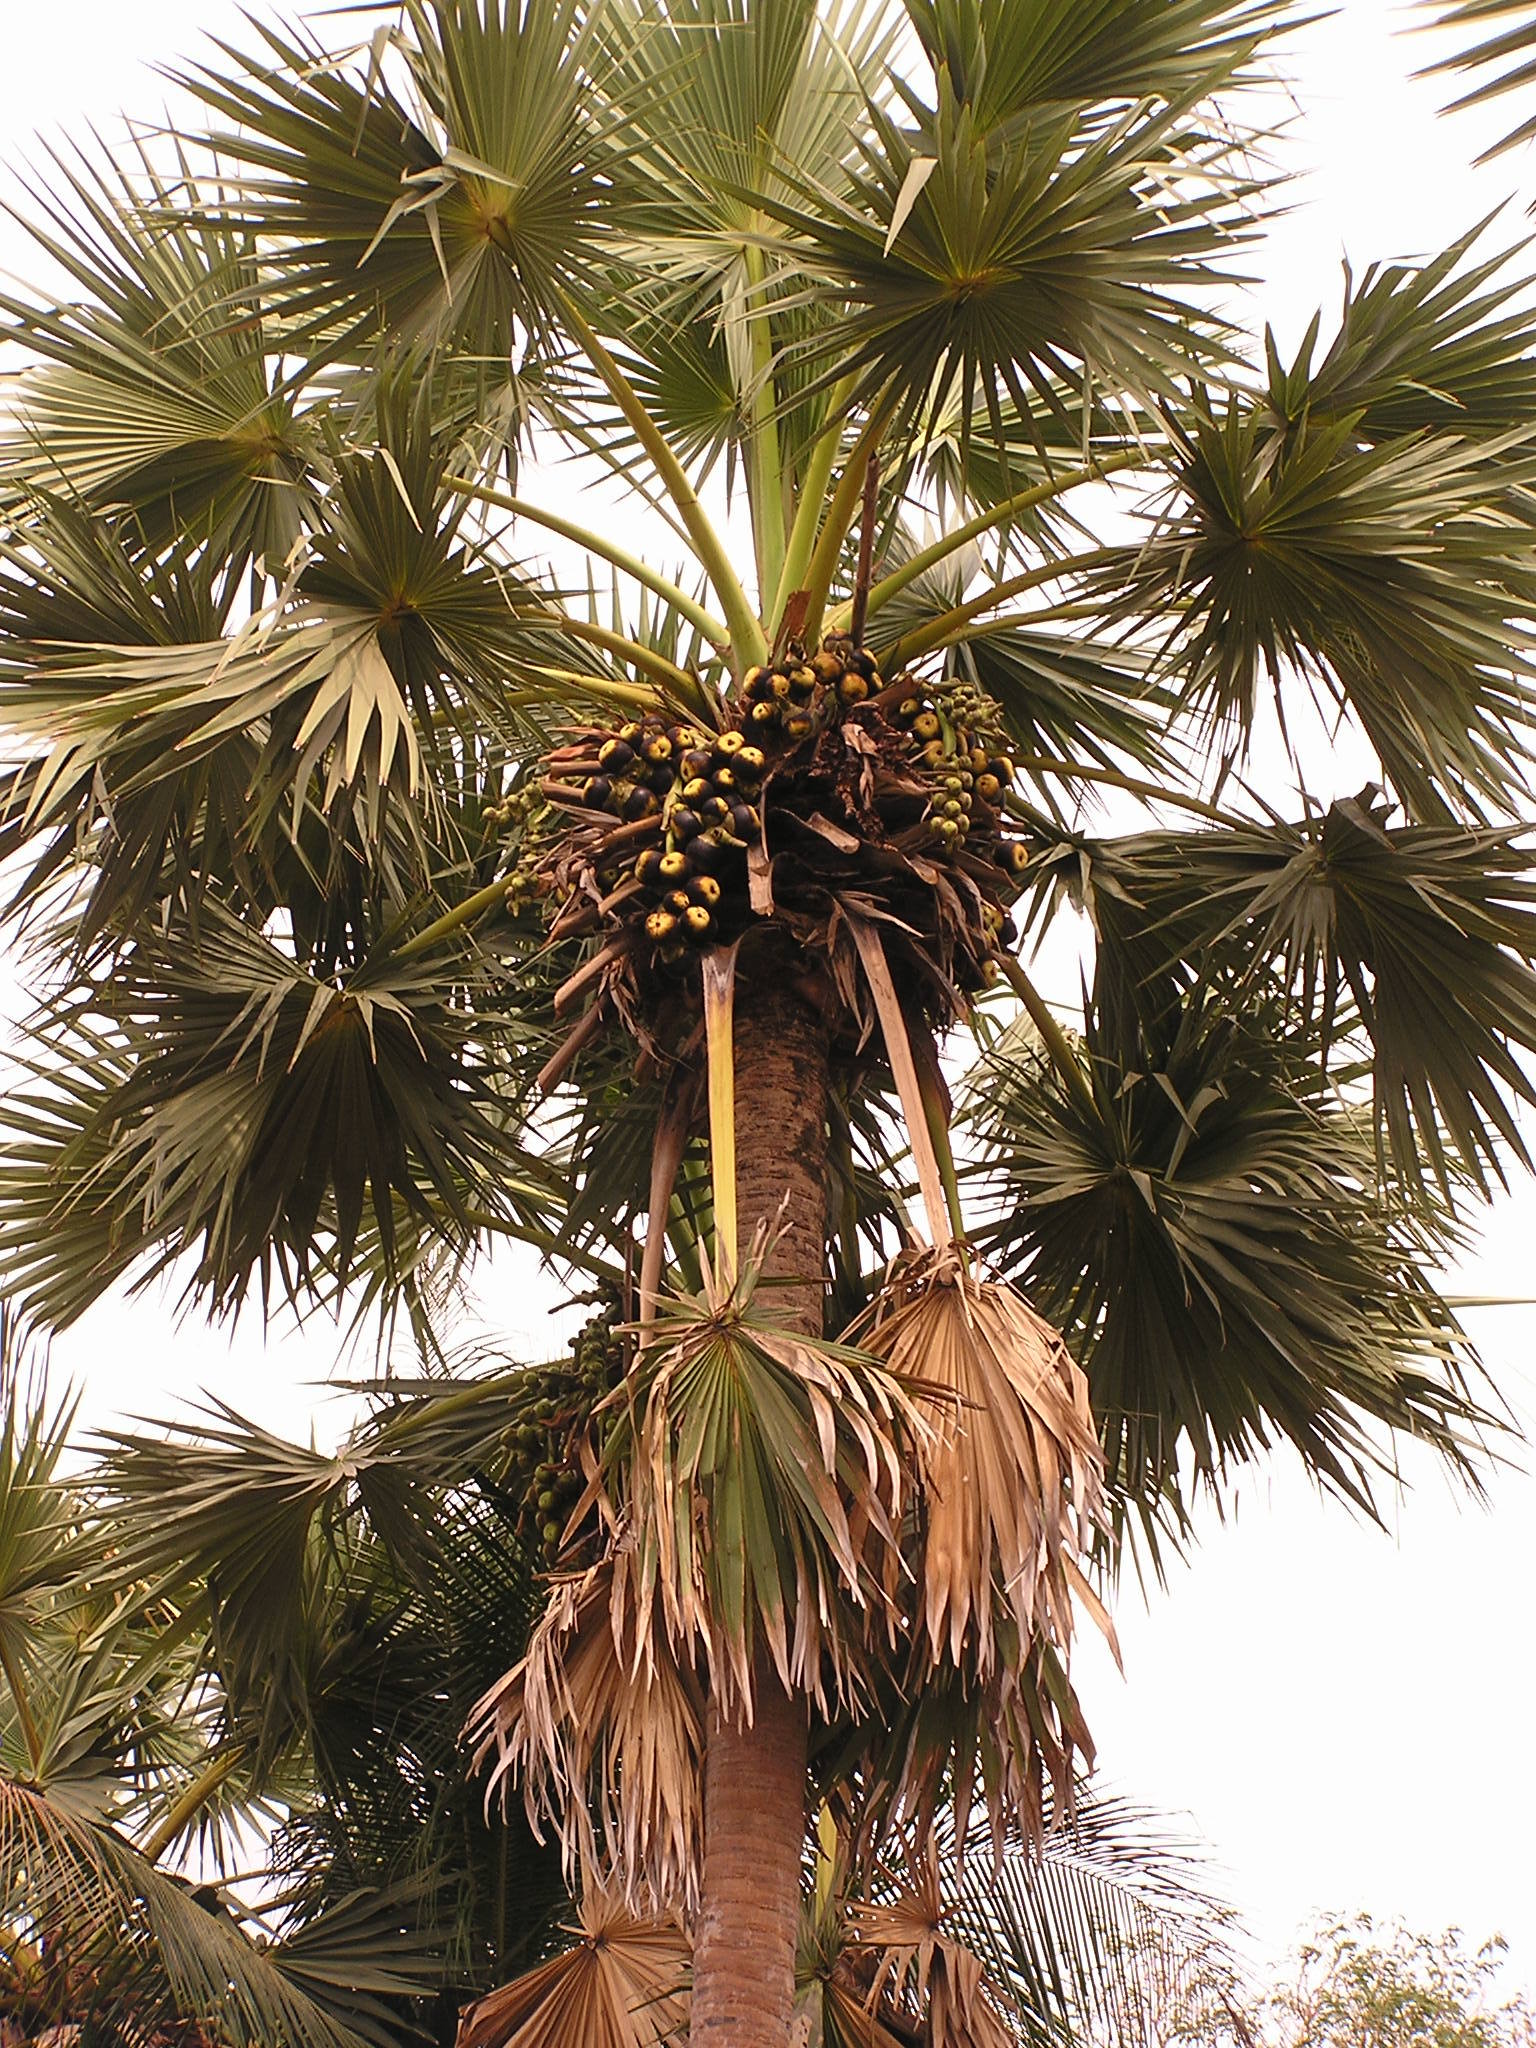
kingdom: Plantae
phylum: Tracheophyta
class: Liliopsida
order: Arecales
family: Arecaceae
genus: Borassus
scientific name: Borassus flabellifer
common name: Palmyra palm
